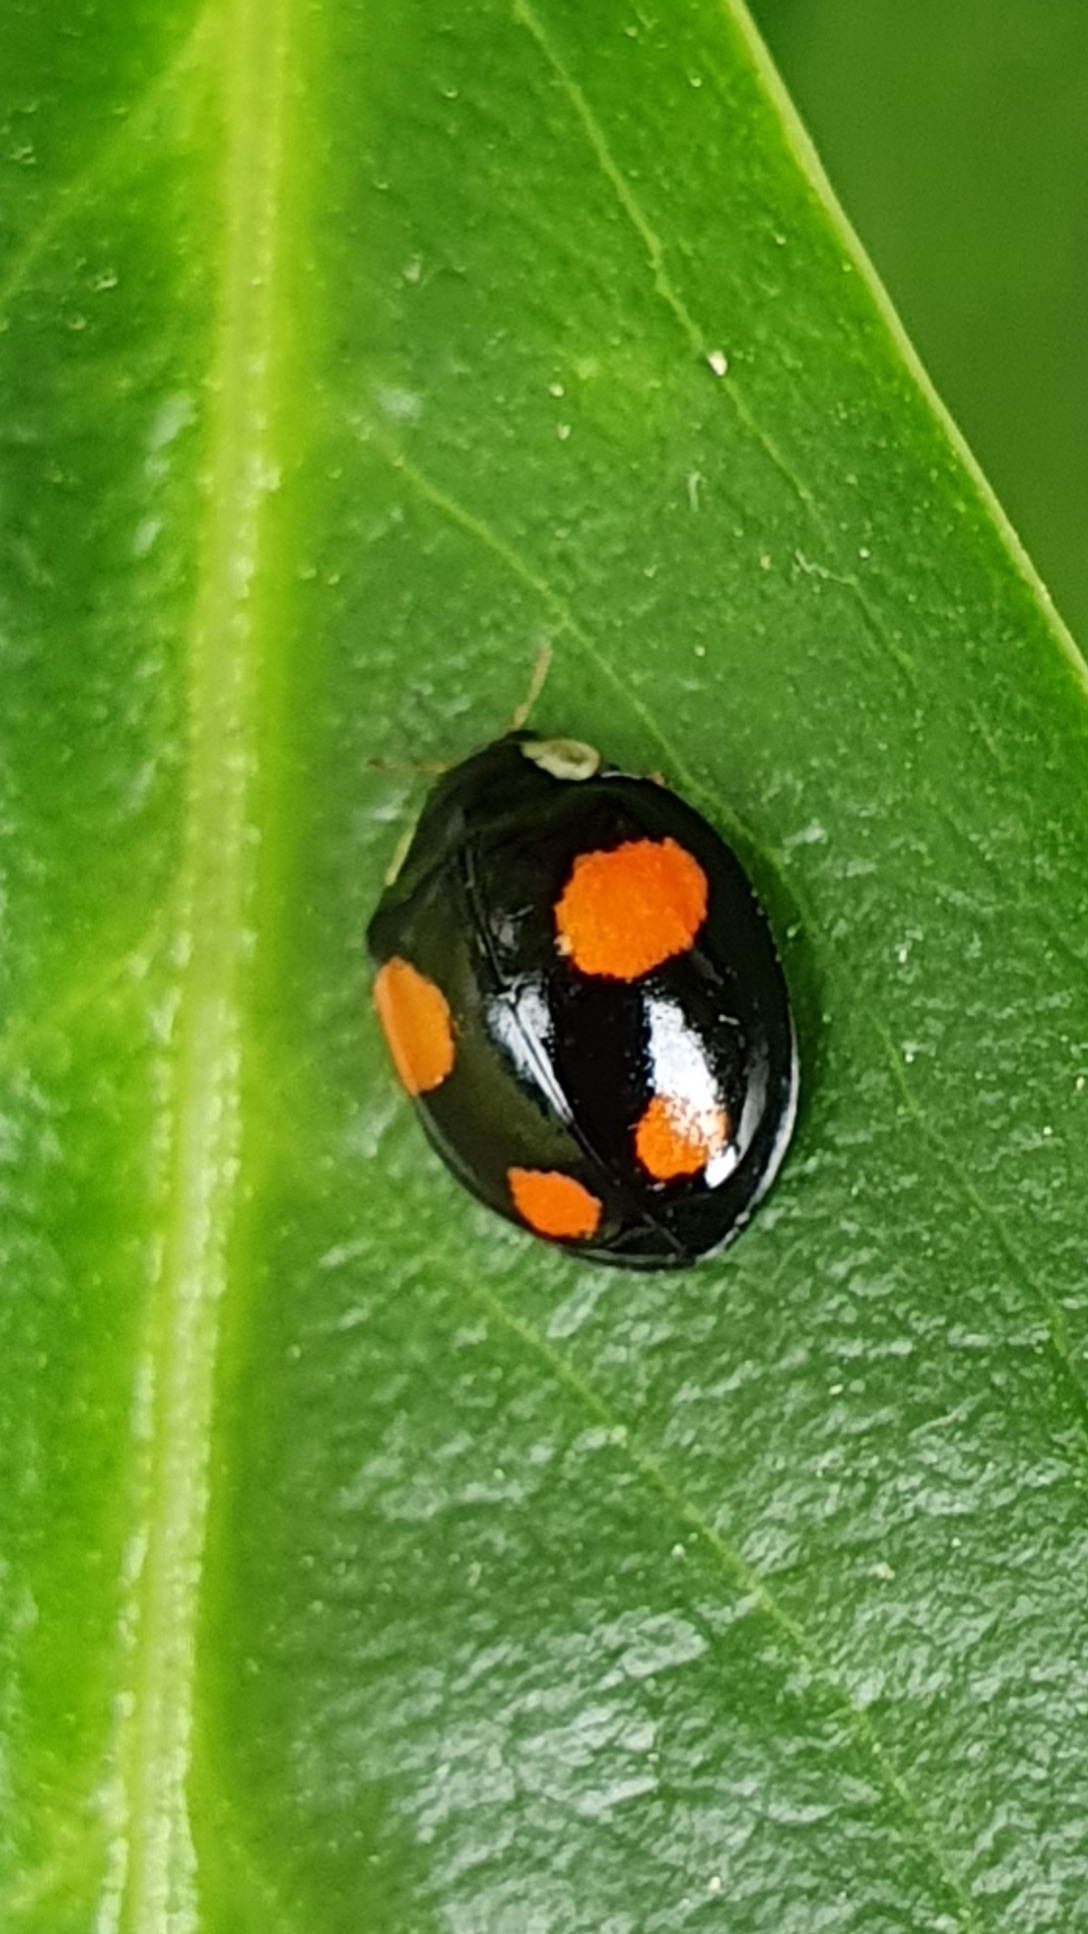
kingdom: Animalia
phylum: Arthropoda
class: Insecta
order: Coleoptera
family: Coccinellidae
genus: Harmonia
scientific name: Harmonia axyridis
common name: Harlequin ladybird
